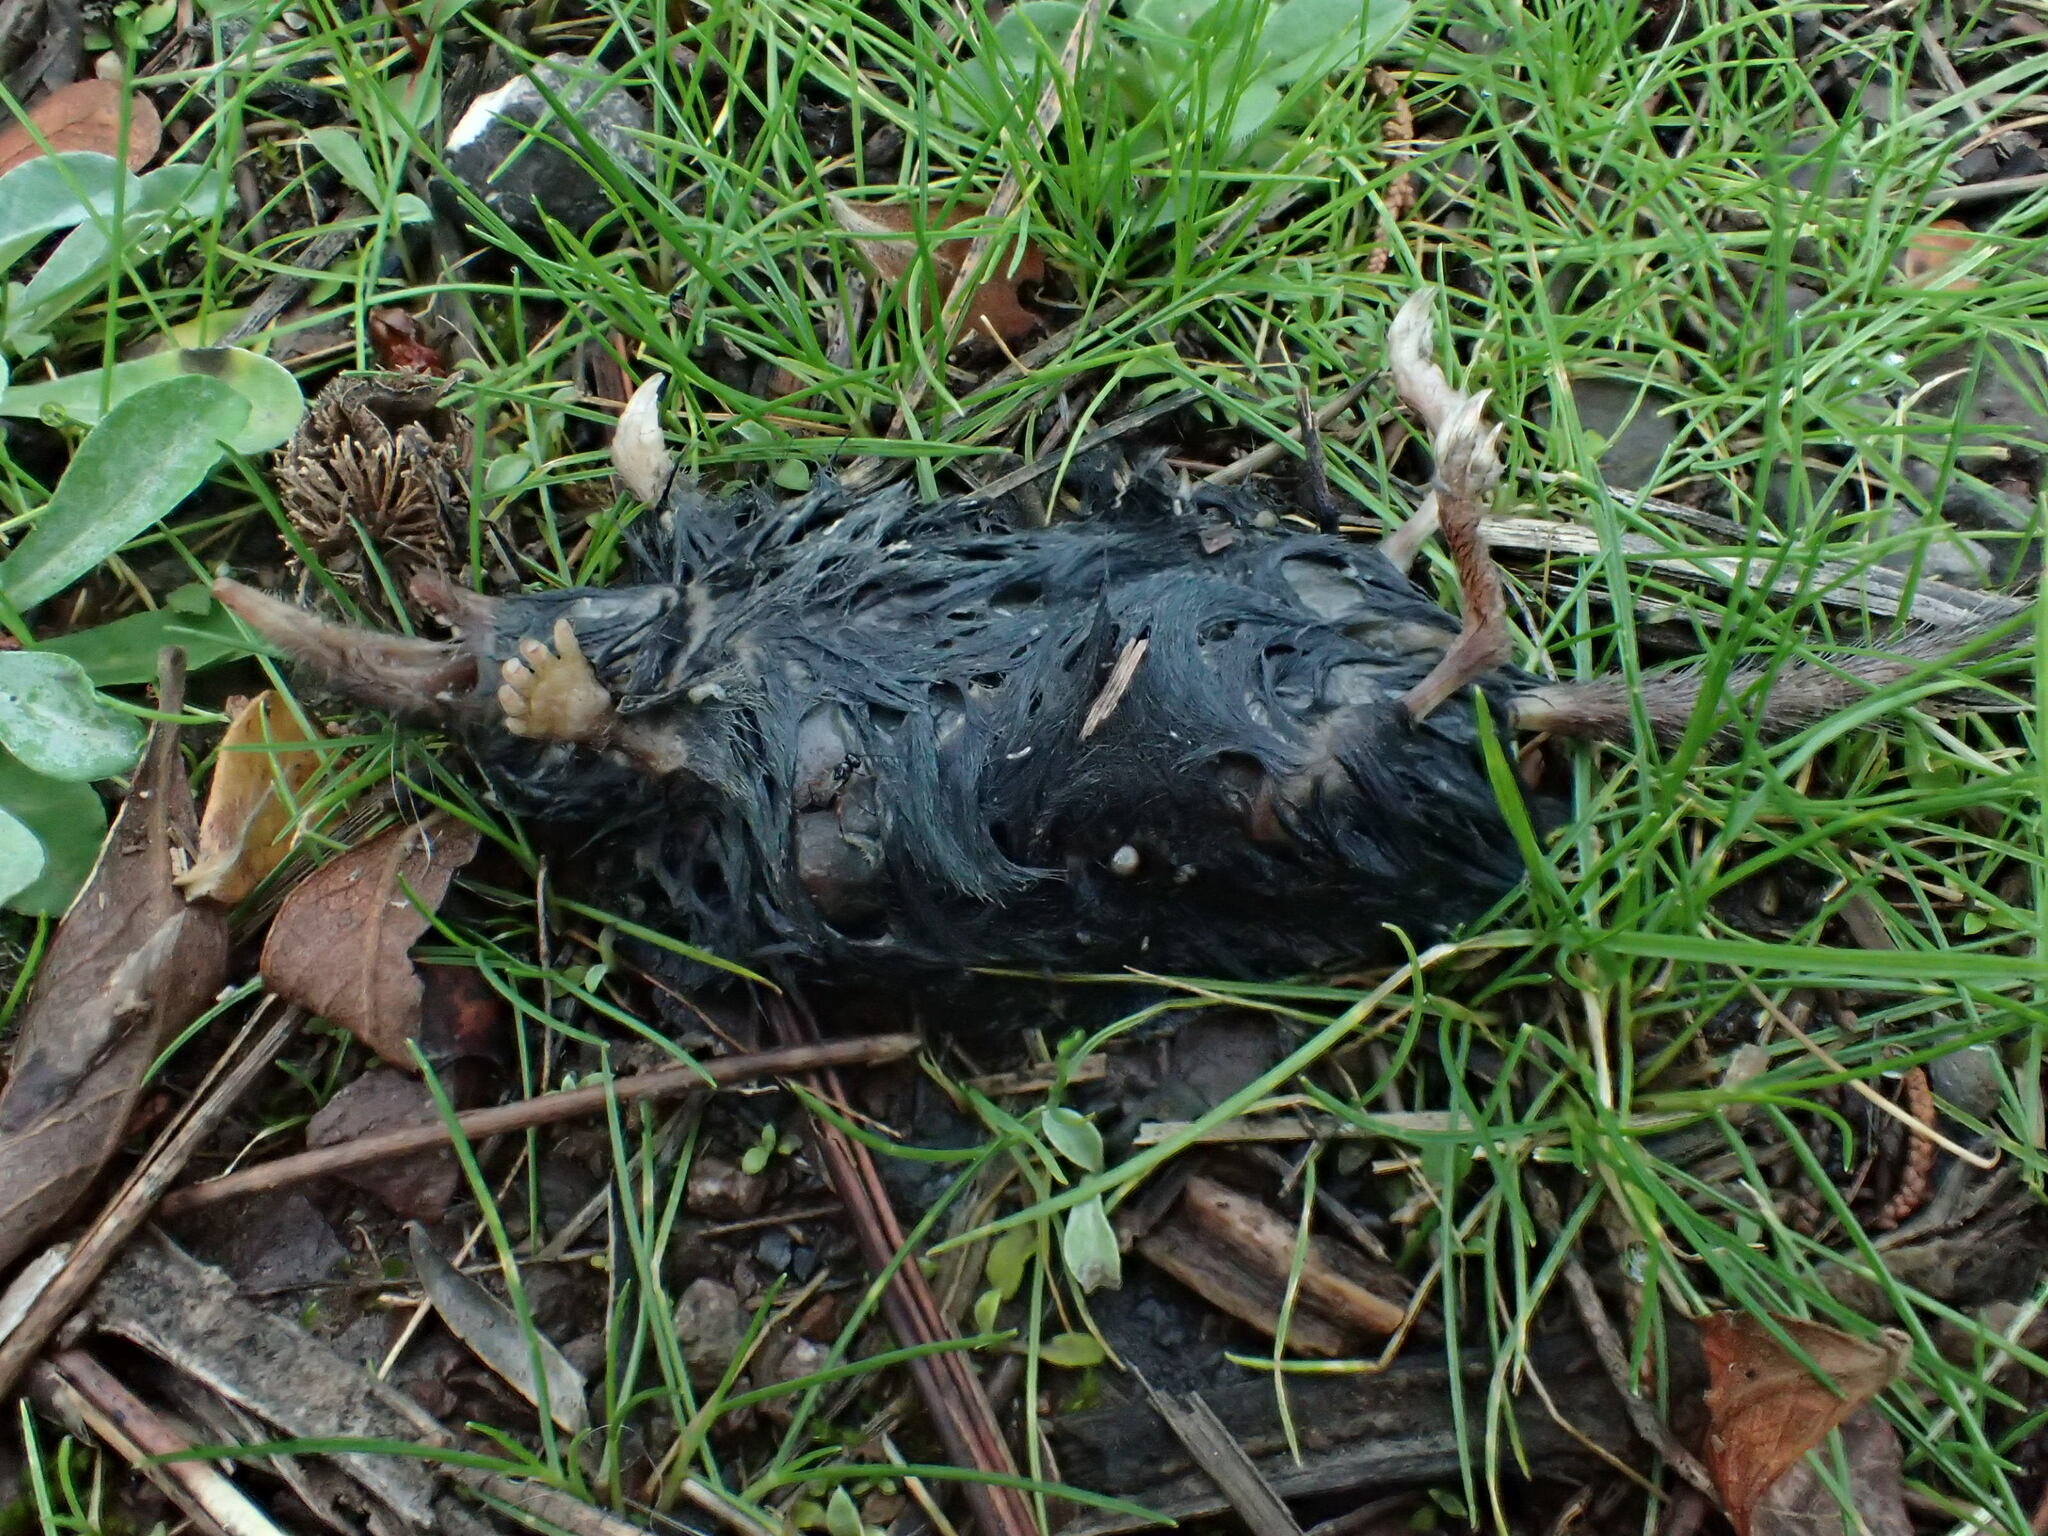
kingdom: Animalia
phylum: Chordata
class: Mammalia
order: Soricomorpha
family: Talpidae
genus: Neurotrichus
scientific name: Neurotrichus gibbsii
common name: American shrew mole
